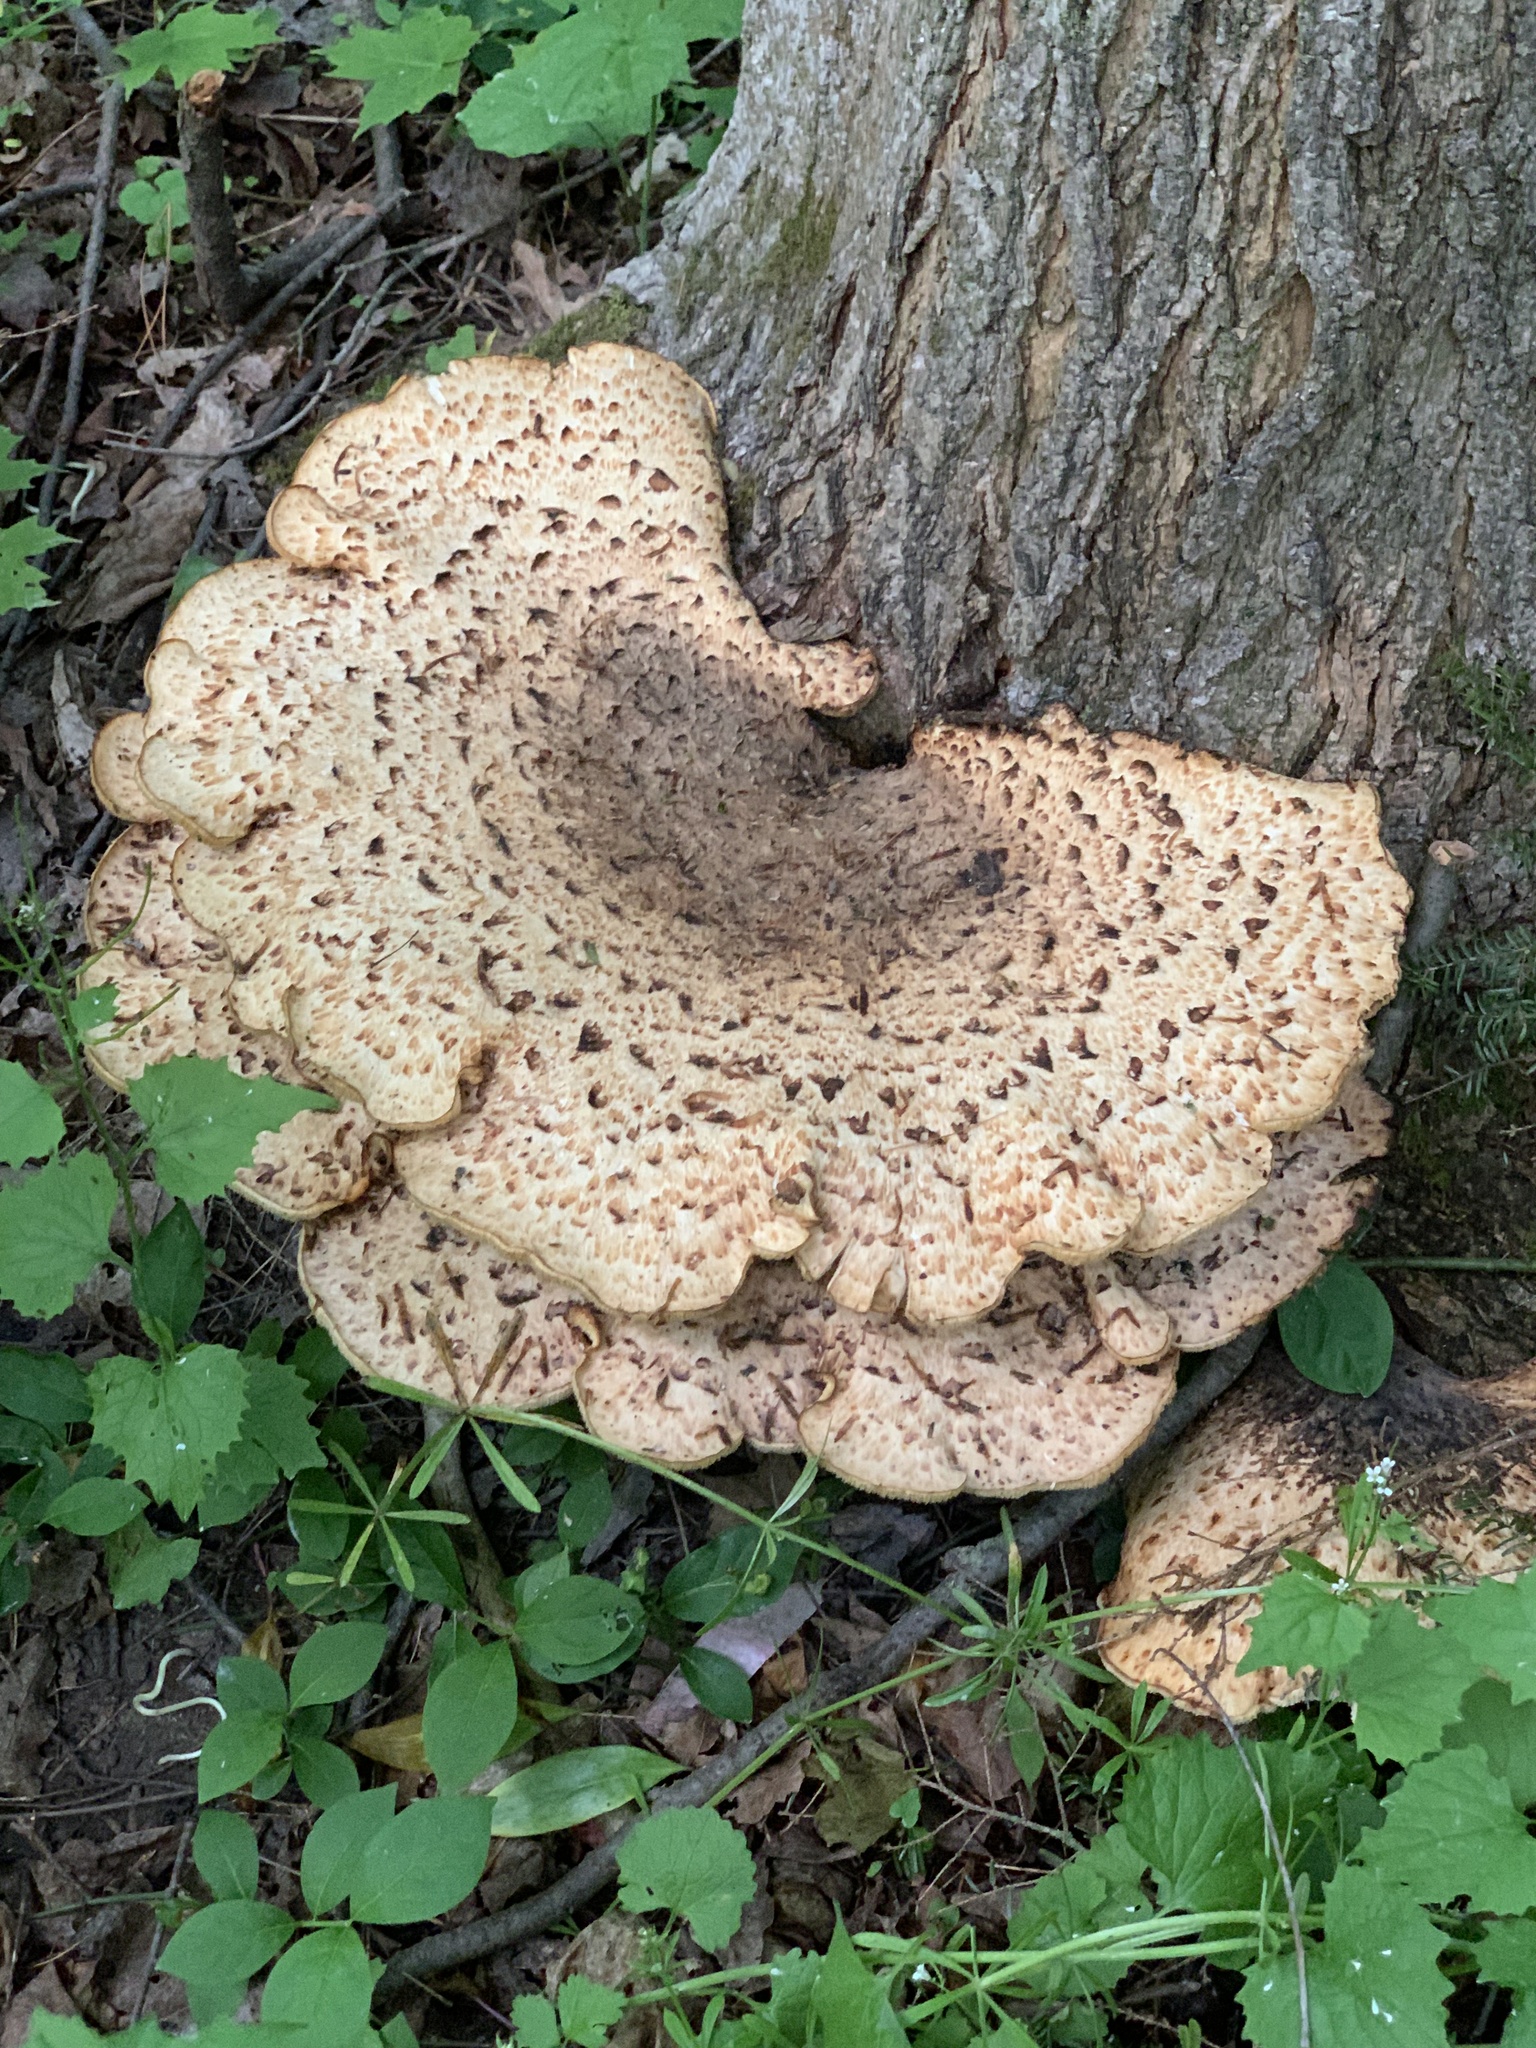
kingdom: Fungi
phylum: Basidiomycota
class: Agaricomycetes
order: Polyporales
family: Polyporaceae
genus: Cerioporus
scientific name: Cerioporus squamosus
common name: Dryad's saddle
